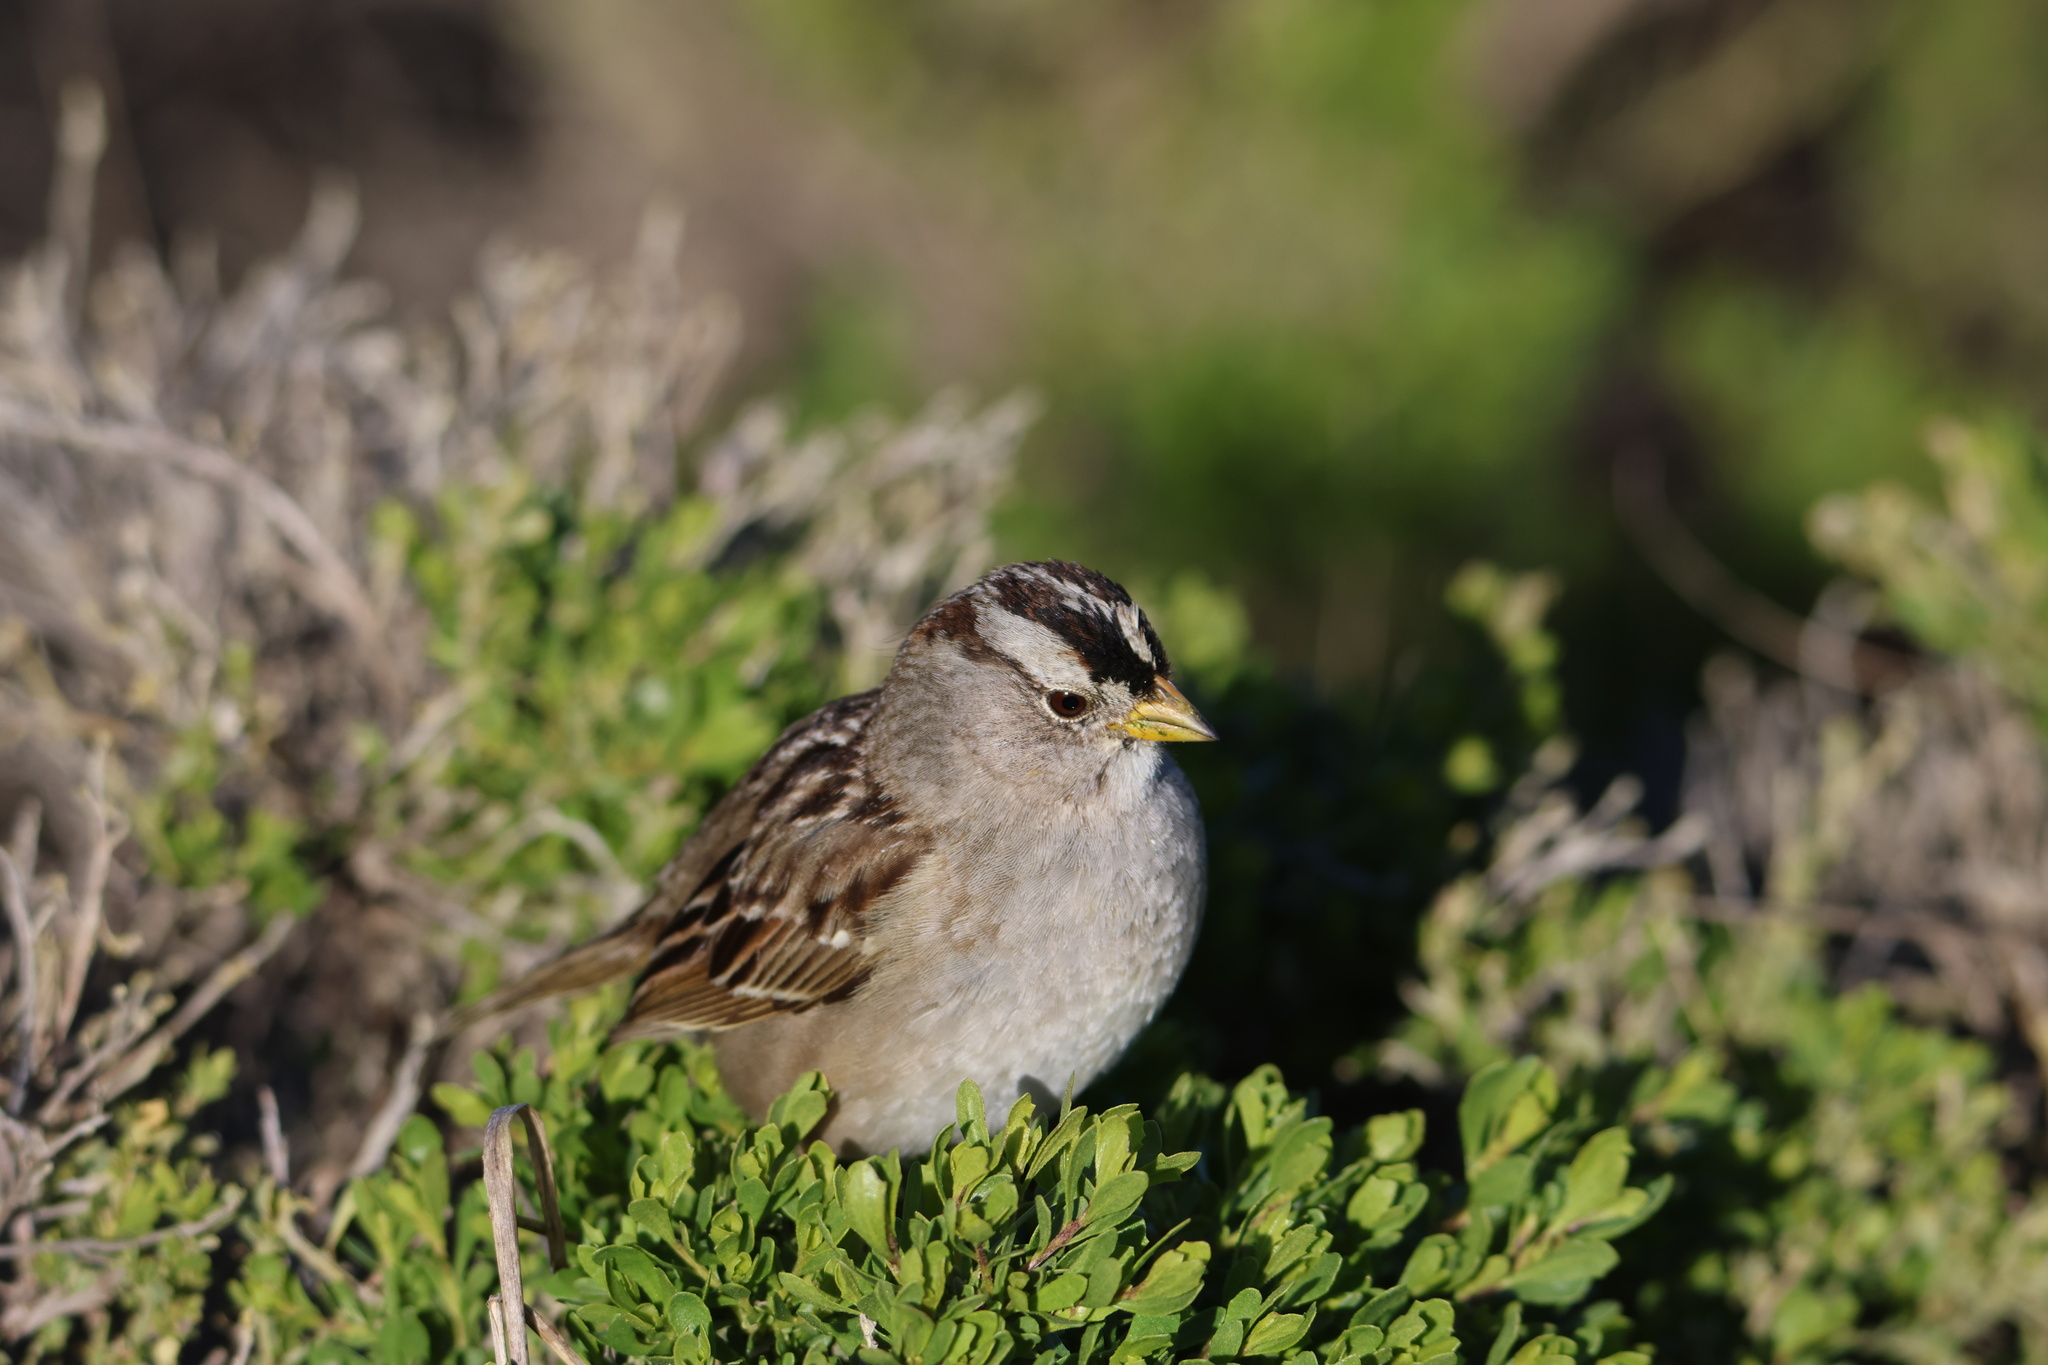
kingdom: Animalia
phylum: Chordata
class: Aves
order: Passeriformes
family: Passerellidae
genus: Zonotrichia
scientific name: Zonotrichia leucophrys
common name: White-crowned sparrow
